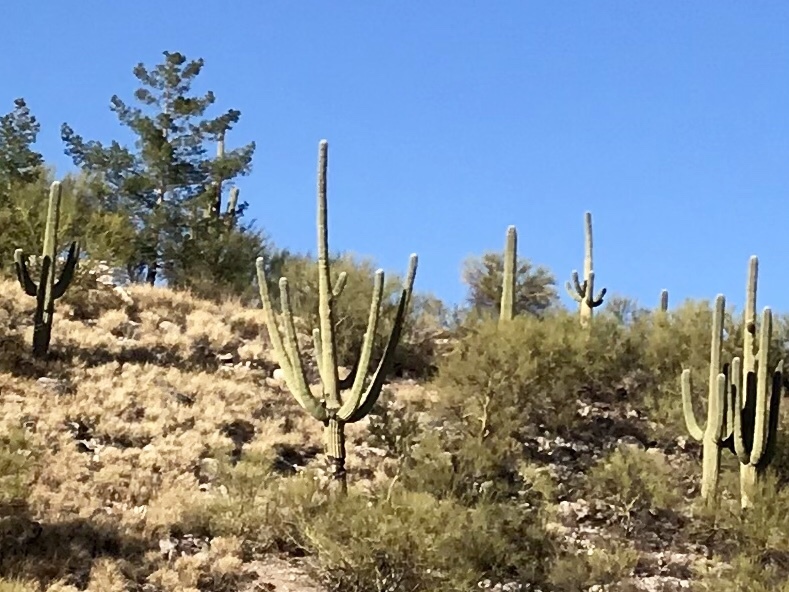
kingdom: Plantae
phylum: Tracheophyta
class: Magnoliopsida
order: Caryophyllales
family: Cactaceae
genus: Carnegiea
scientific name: Carnegiea gigantea
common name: Saguaro
